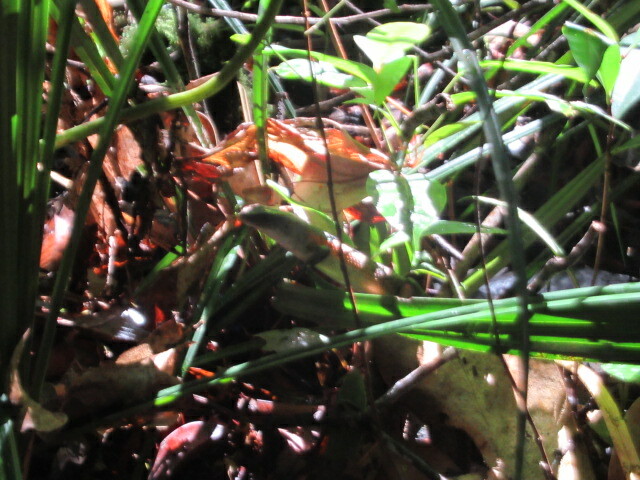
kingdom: Animalia
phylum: Chordata
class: Squamata
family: Scincidae
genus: Eutropis
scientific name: Eutropis multifasciata
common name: Common mabuya
